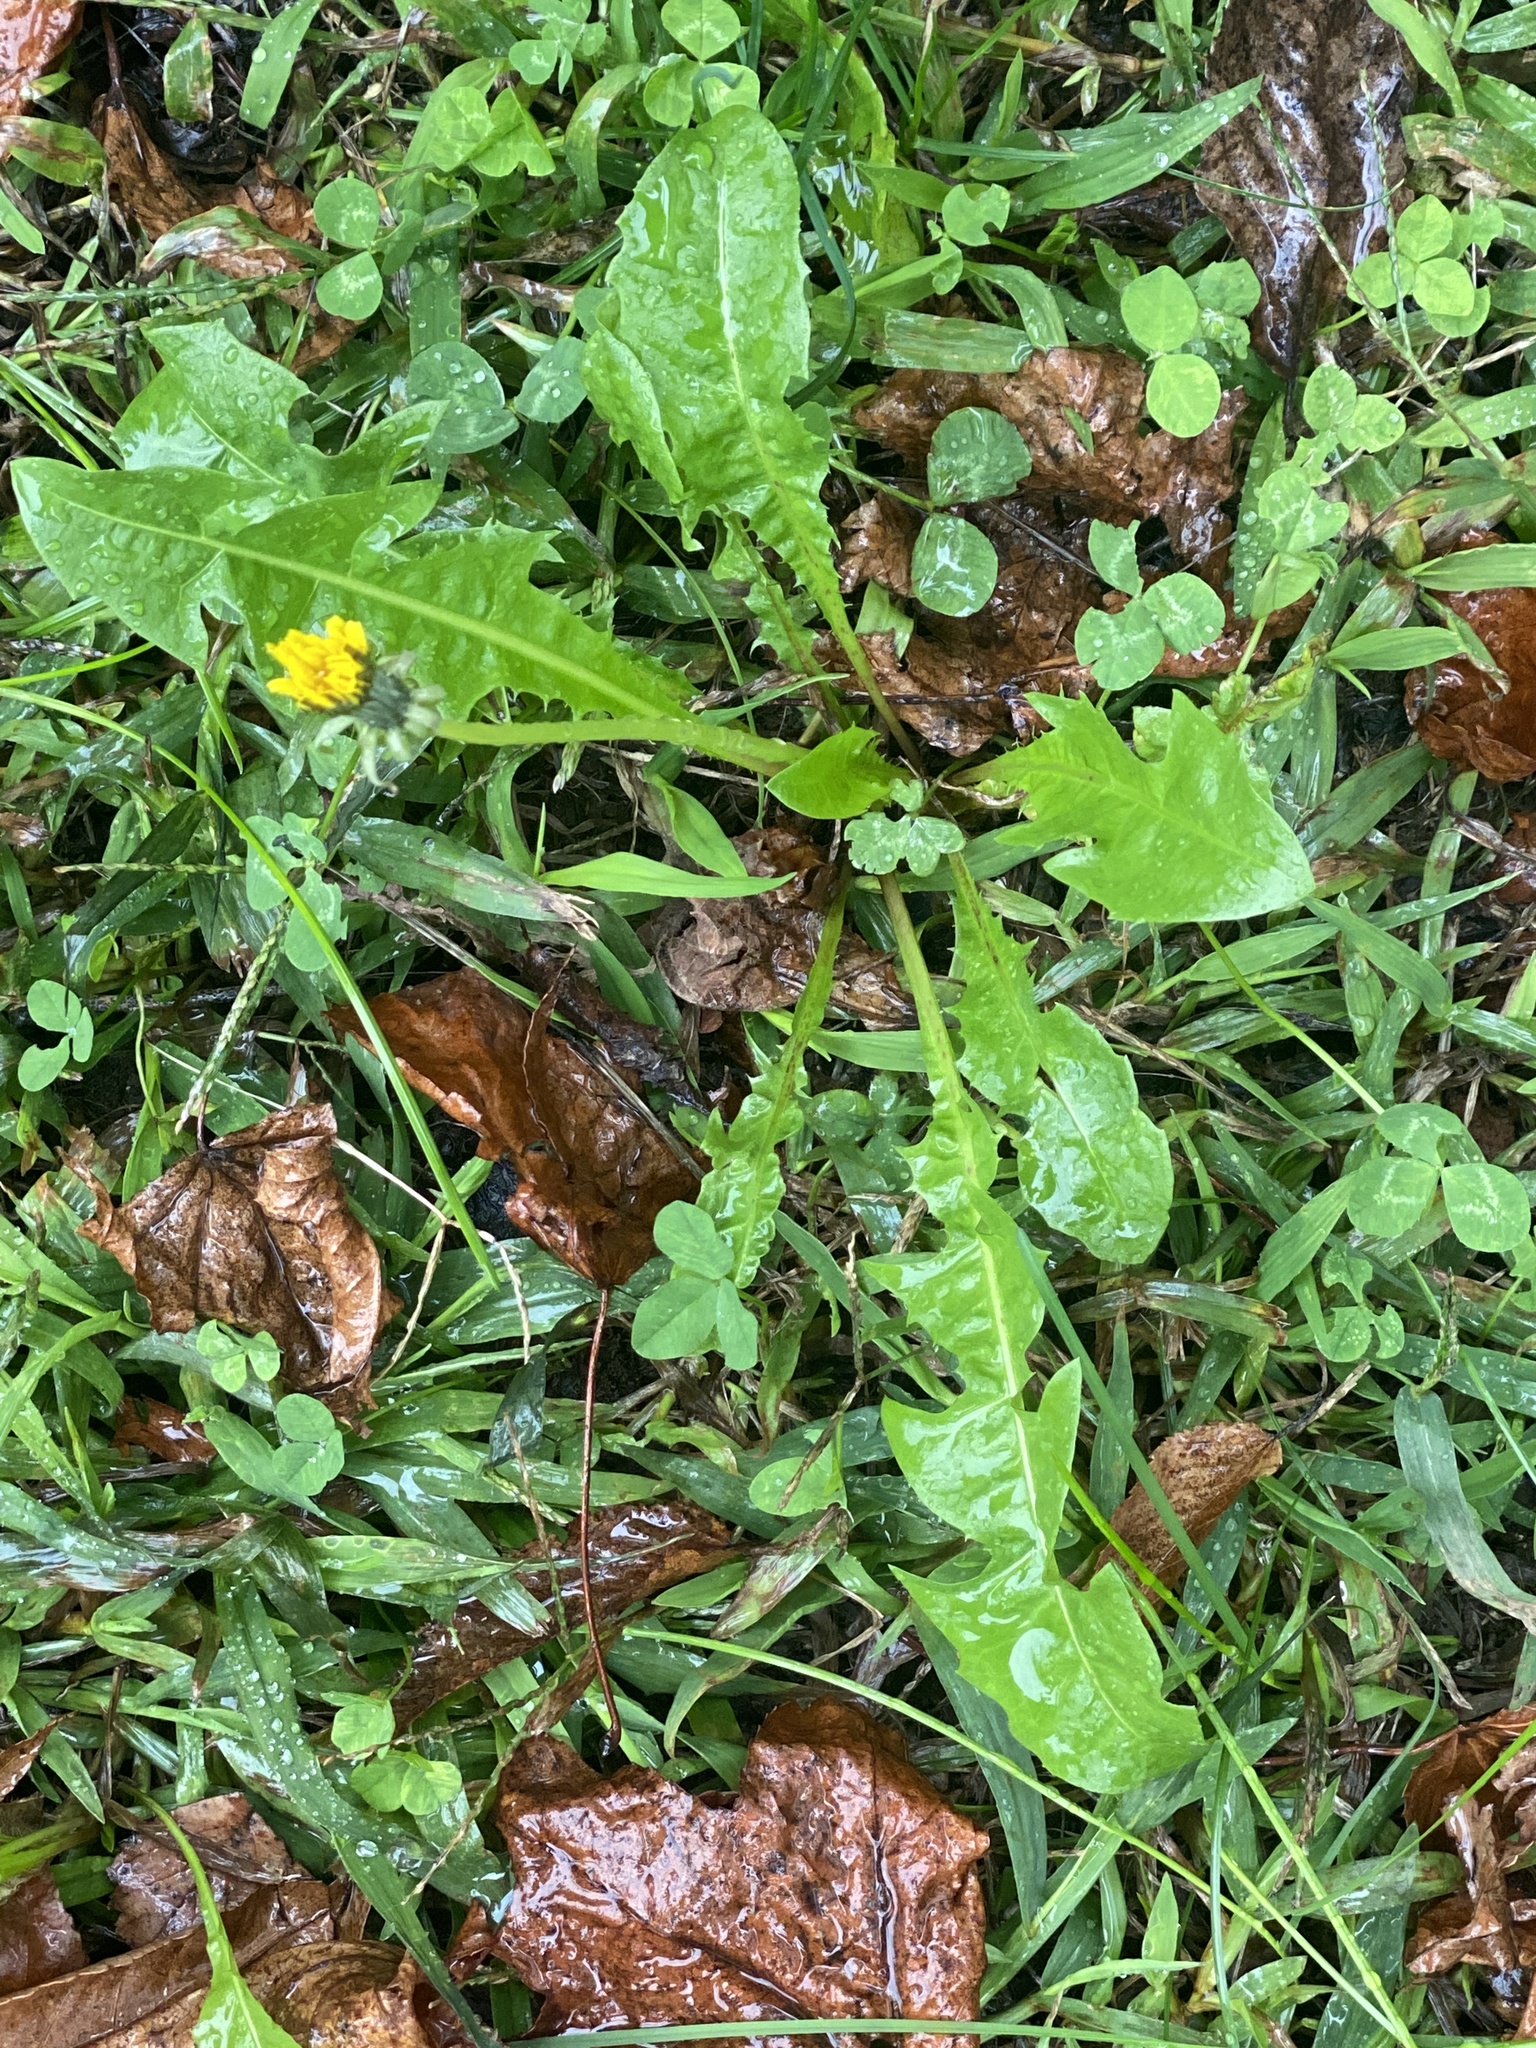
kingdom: Plantae
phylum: Tracheophyta
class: Magnoliopsida
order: Asterales
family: Asteraceae
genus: Taraxacum
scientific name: Taraxacum officinale
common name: Common dandelion
